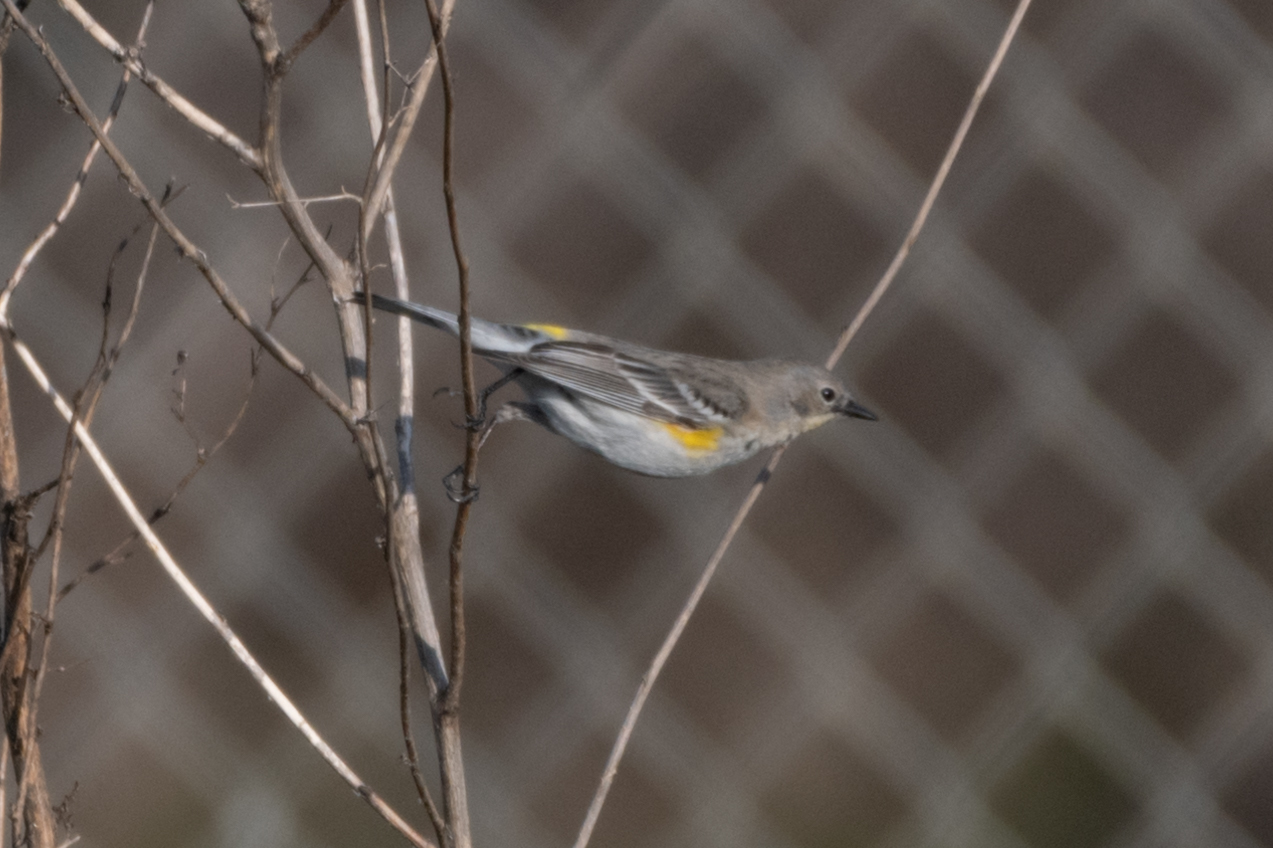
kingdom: Animalia
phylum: Chordata
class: Aves
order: Passeriformes
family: Parulidae
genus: Setophaga
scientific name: Setophaga coronata
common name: Myrtle warbler
